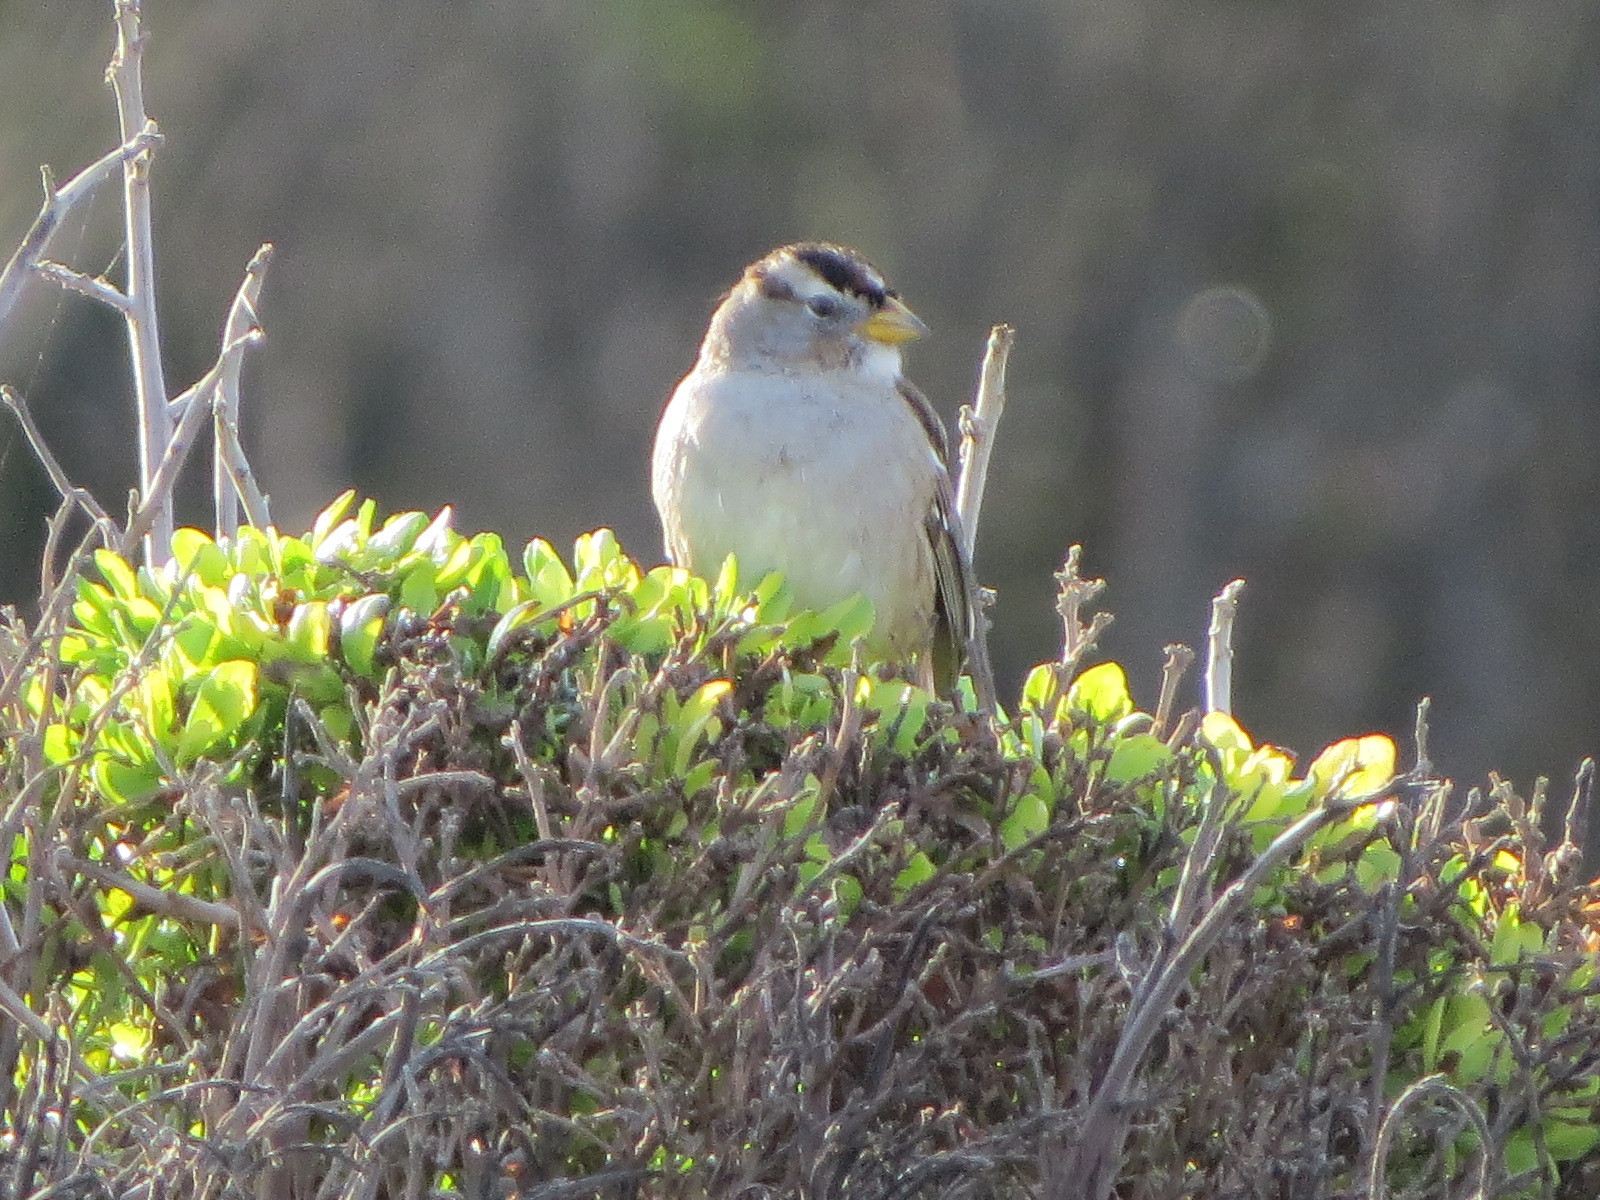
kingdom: Animalia
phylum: Chordata
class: Aves
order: Passeriformes
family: Passerellidae
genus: Zonotrichia
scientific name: Zonotrichia leucophrys
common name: White-crowned sparrow
